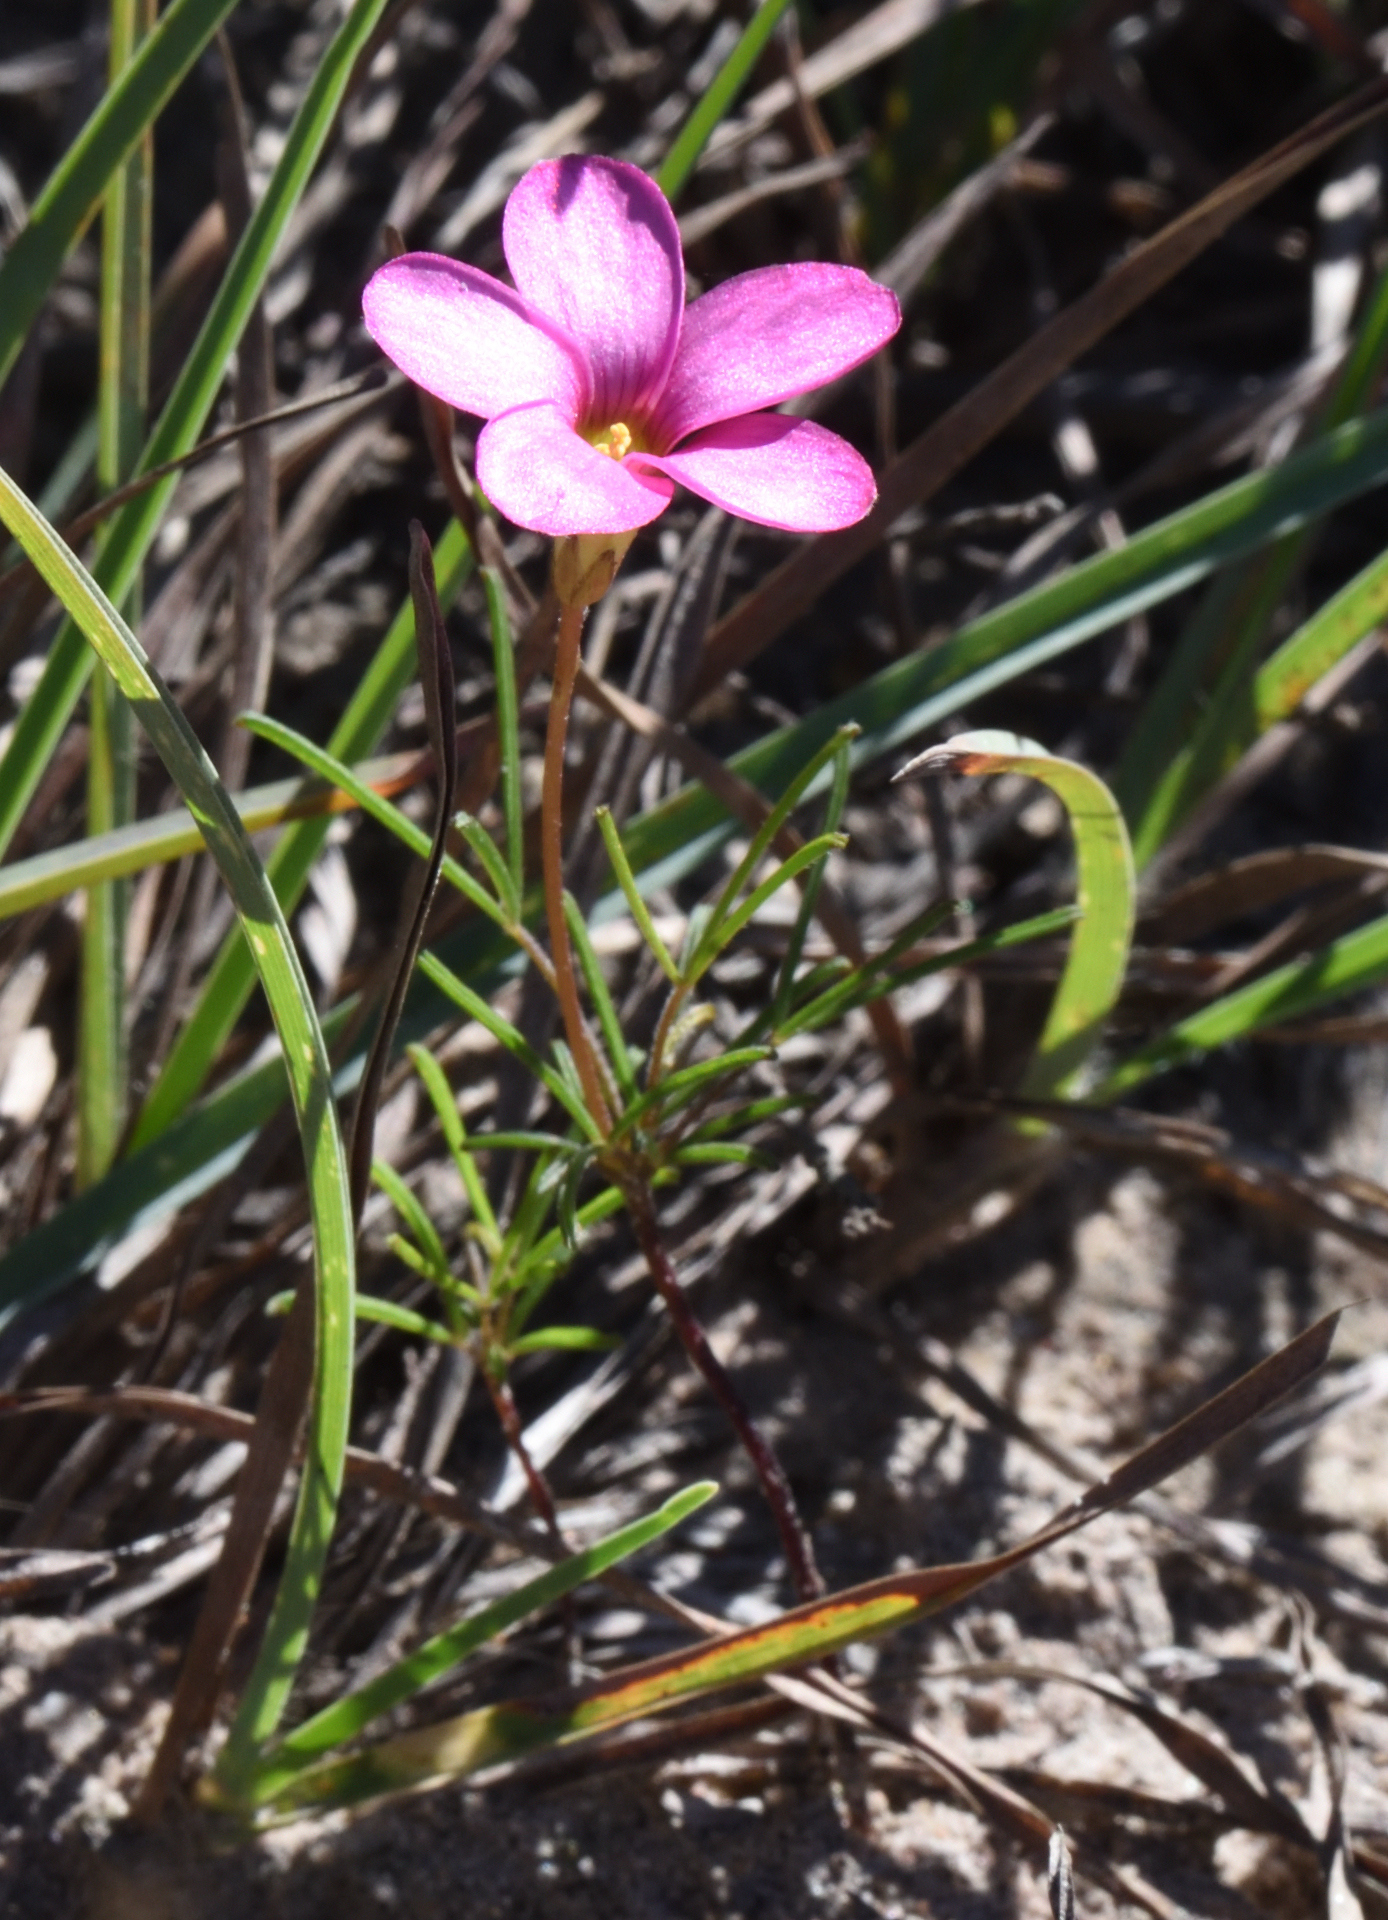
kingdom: Plantae
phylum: Tracheophyta
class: Magnoliopsida
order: Oxalidales
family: Oxalidaceae
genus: Oxalis
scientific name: Oxalis polyphylla
